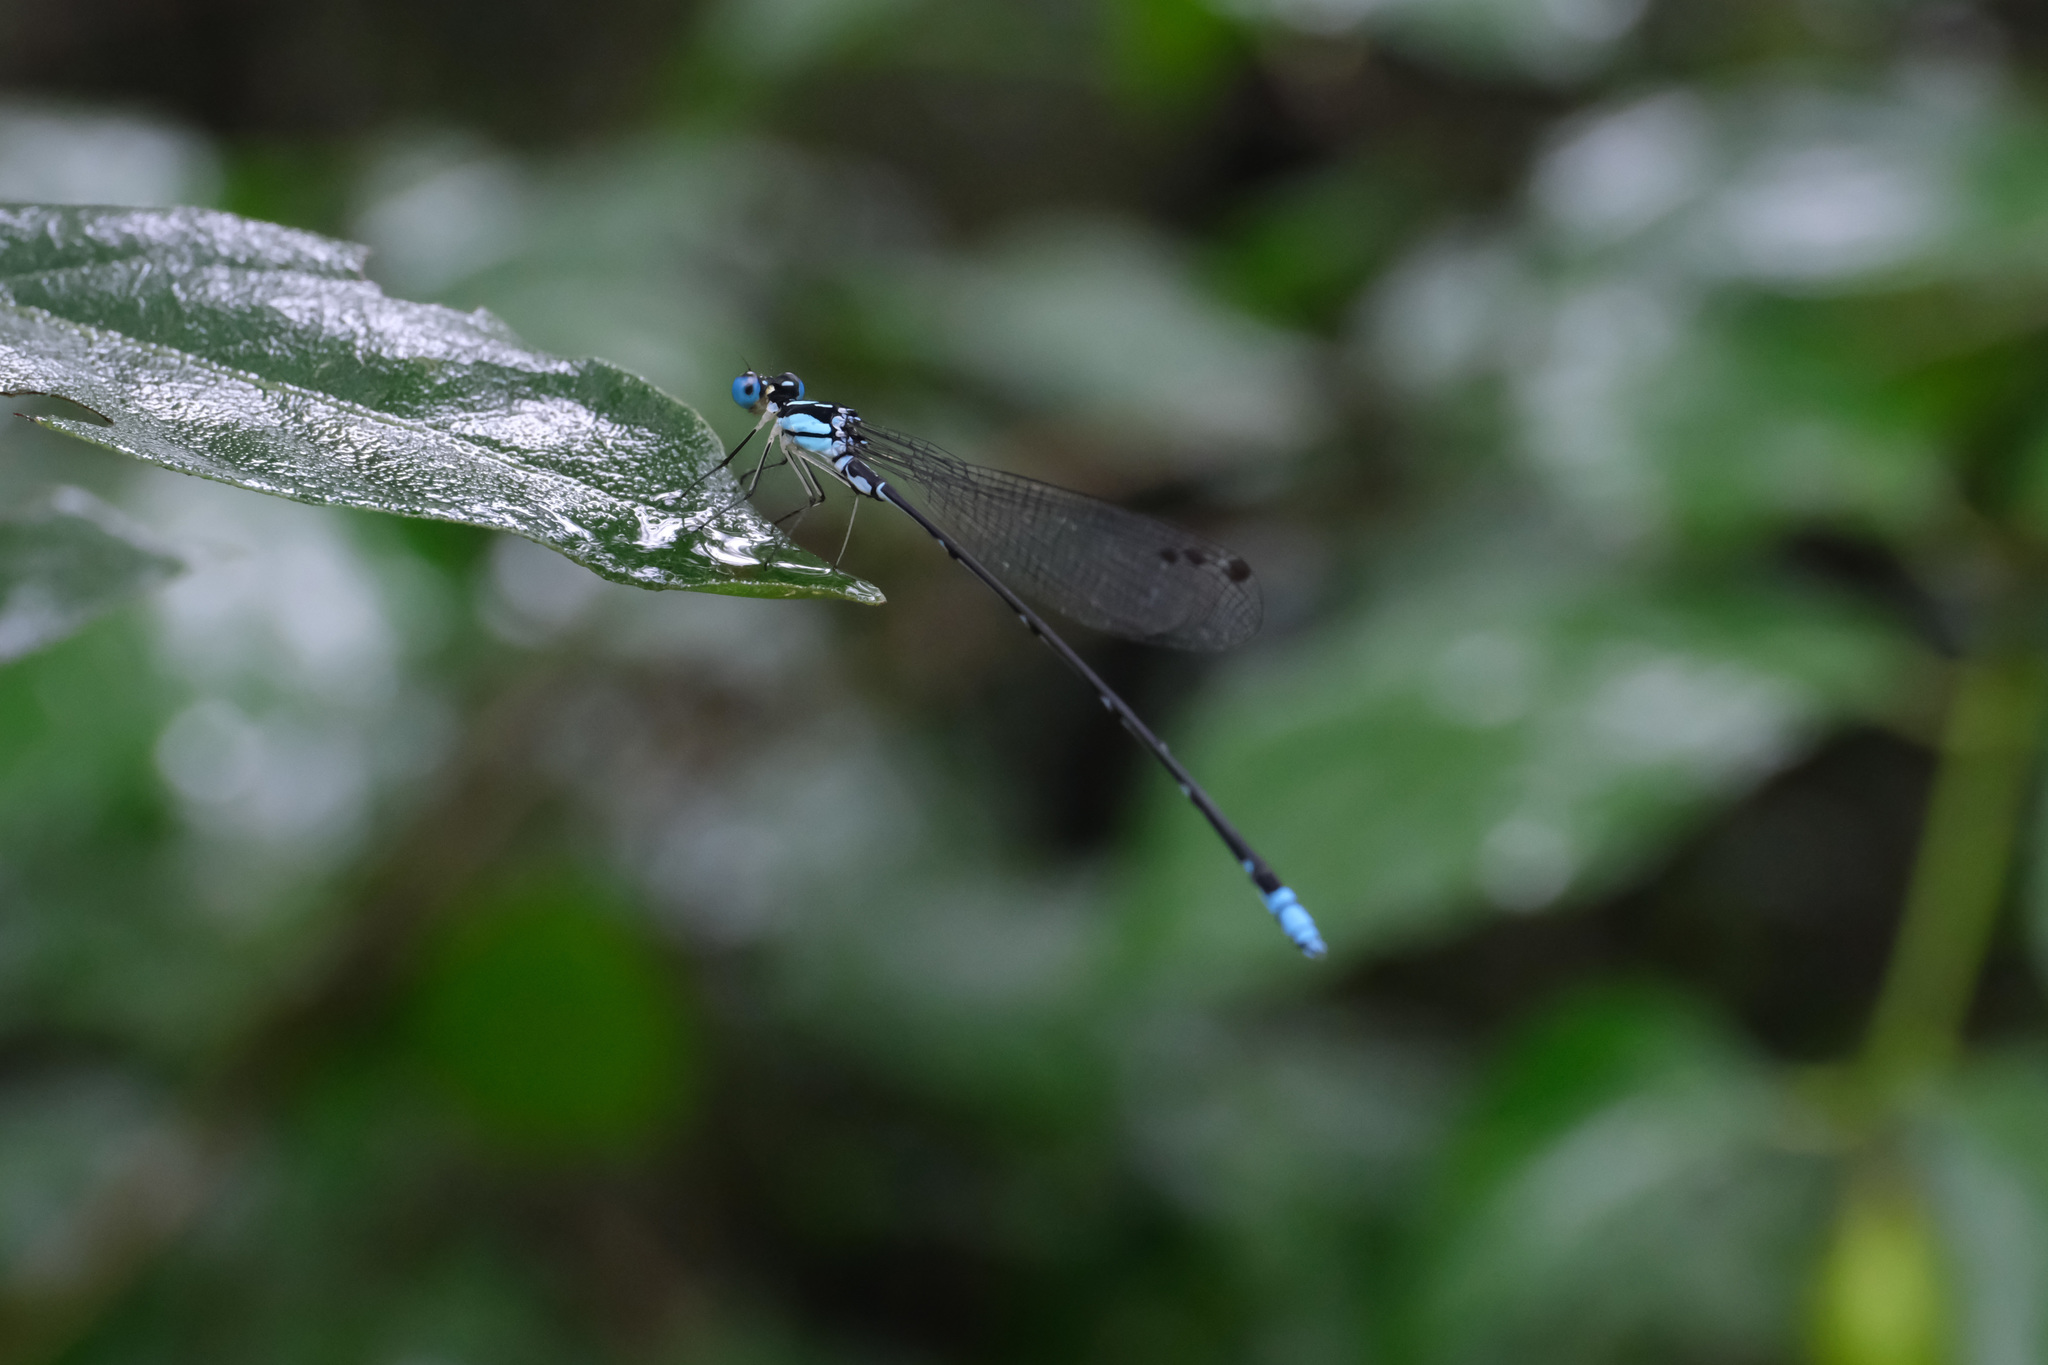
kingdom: Animalia
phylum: Arthropoda
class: Insecta
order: Odonata
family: Platycnemididae
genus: Coeliccia
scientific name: Coeliccia cyanomelas
